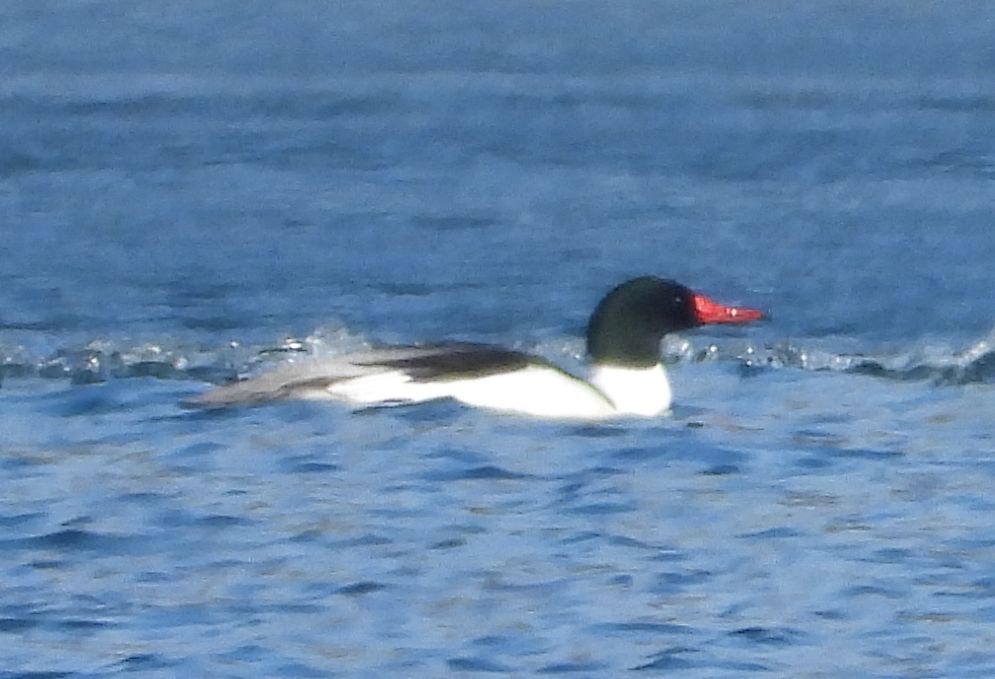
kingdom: Animalia
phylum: Chordata
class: Aves
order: Anseriformes
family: Anatidae
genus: Mergus
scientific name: Mergus merganser
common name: Common merganser
